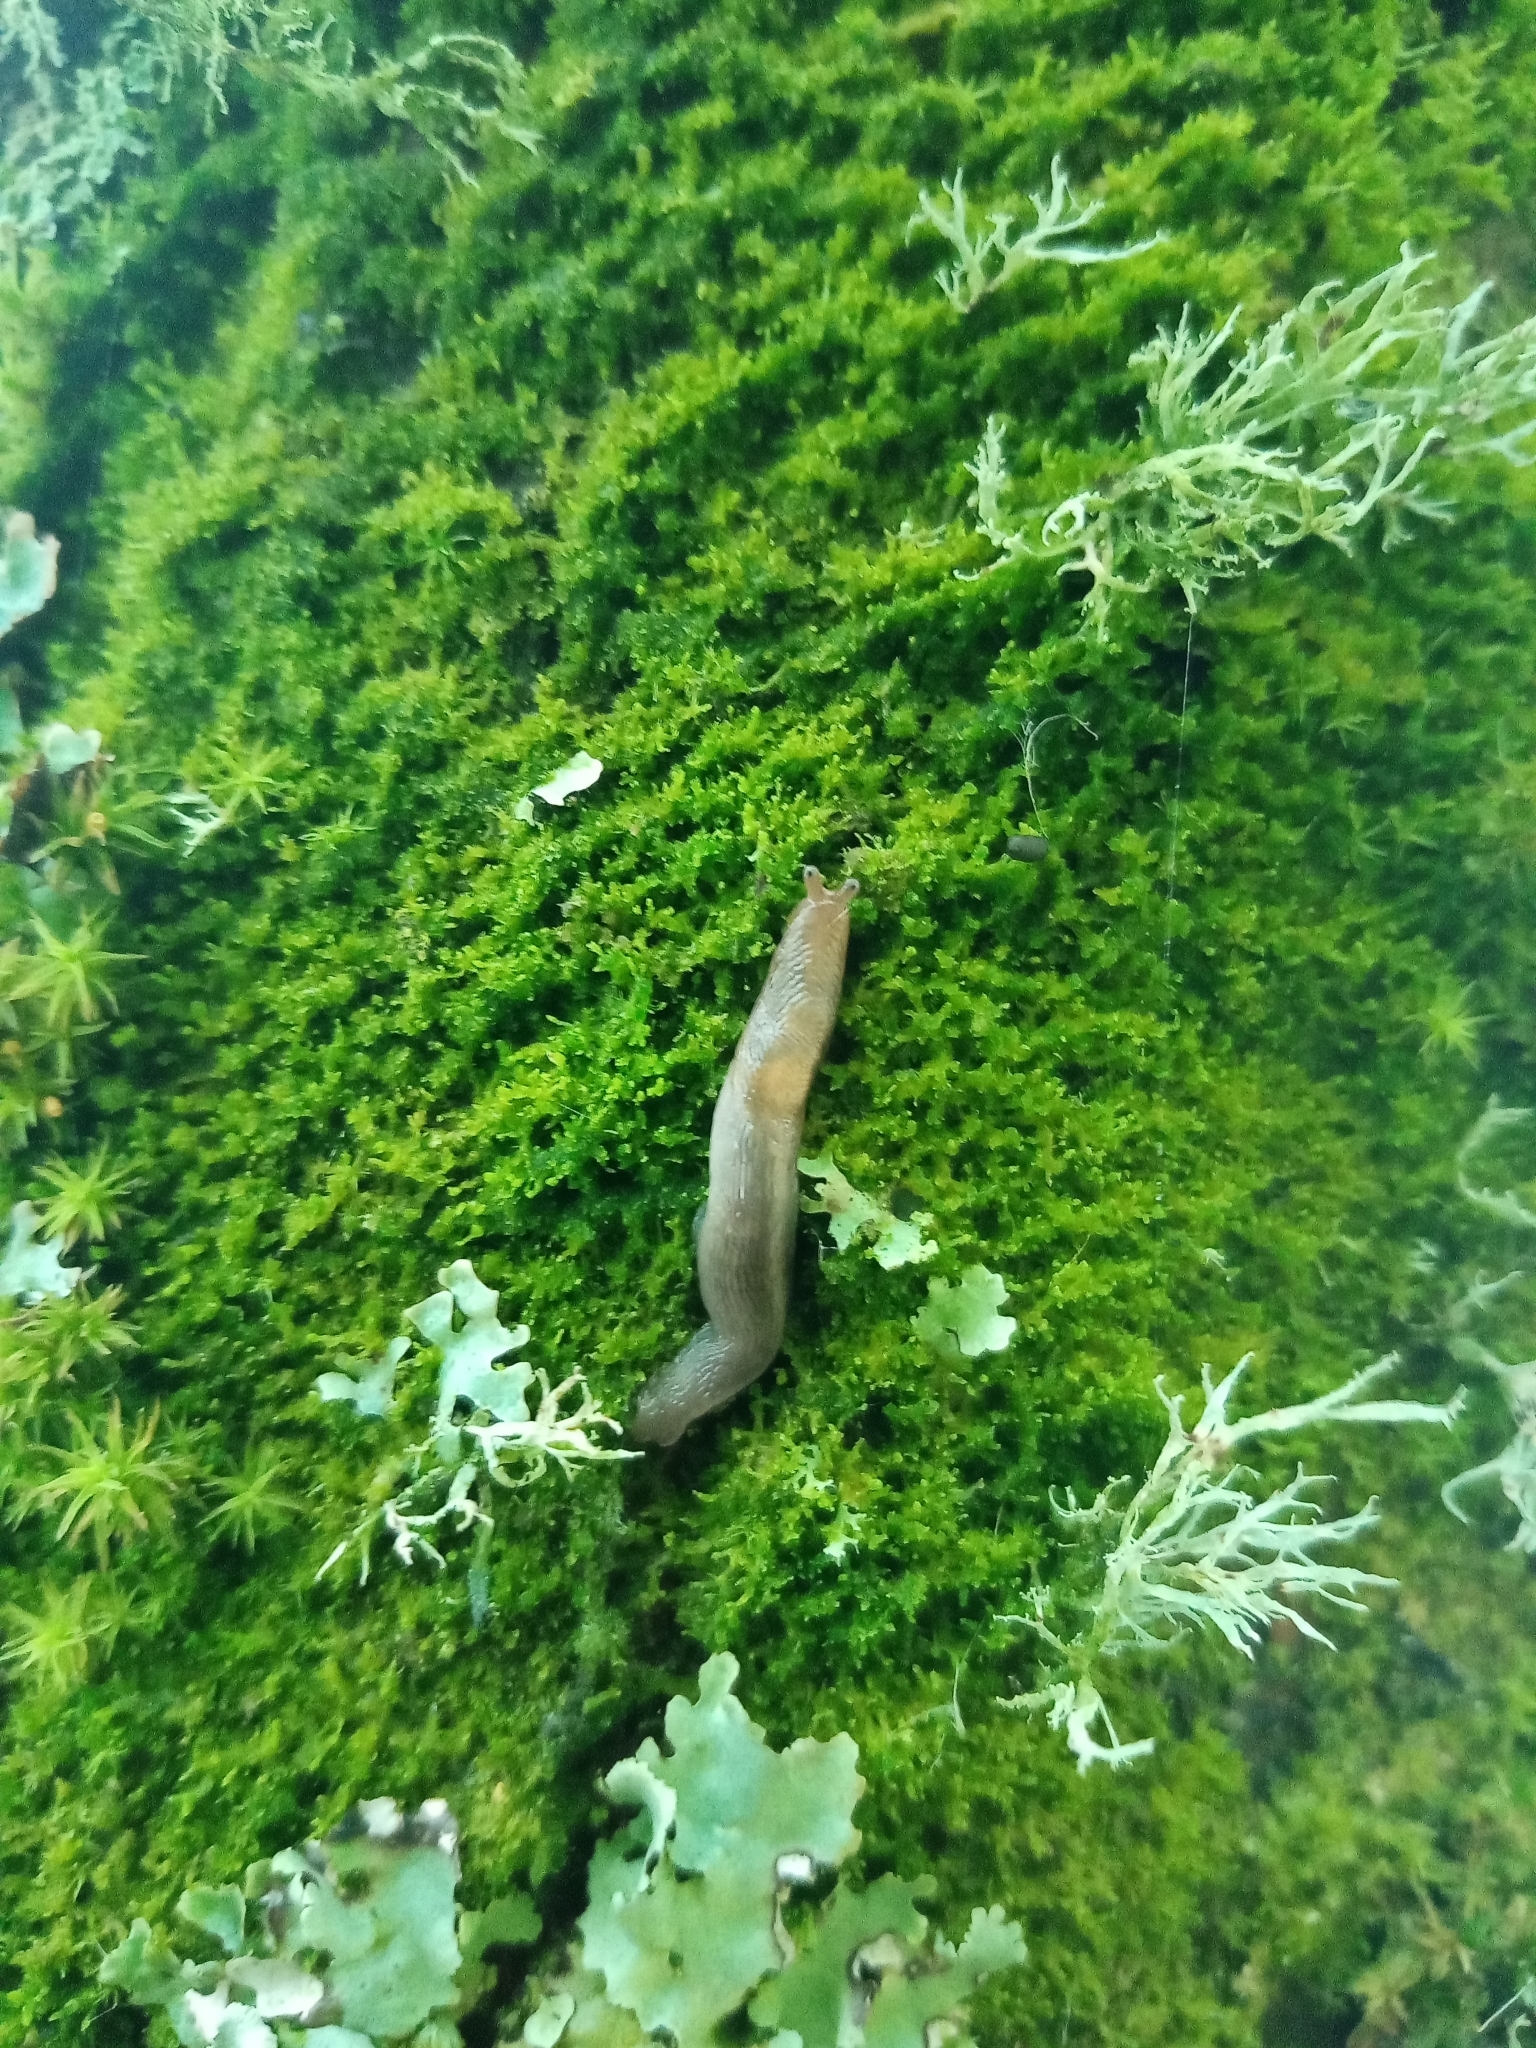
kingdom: Animalia
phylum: Mollusca
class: Gastropoda
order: Stylommatophora
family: Limacidae
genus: Lehmannia
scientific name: Lehmannia marginata
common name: Tree slug
